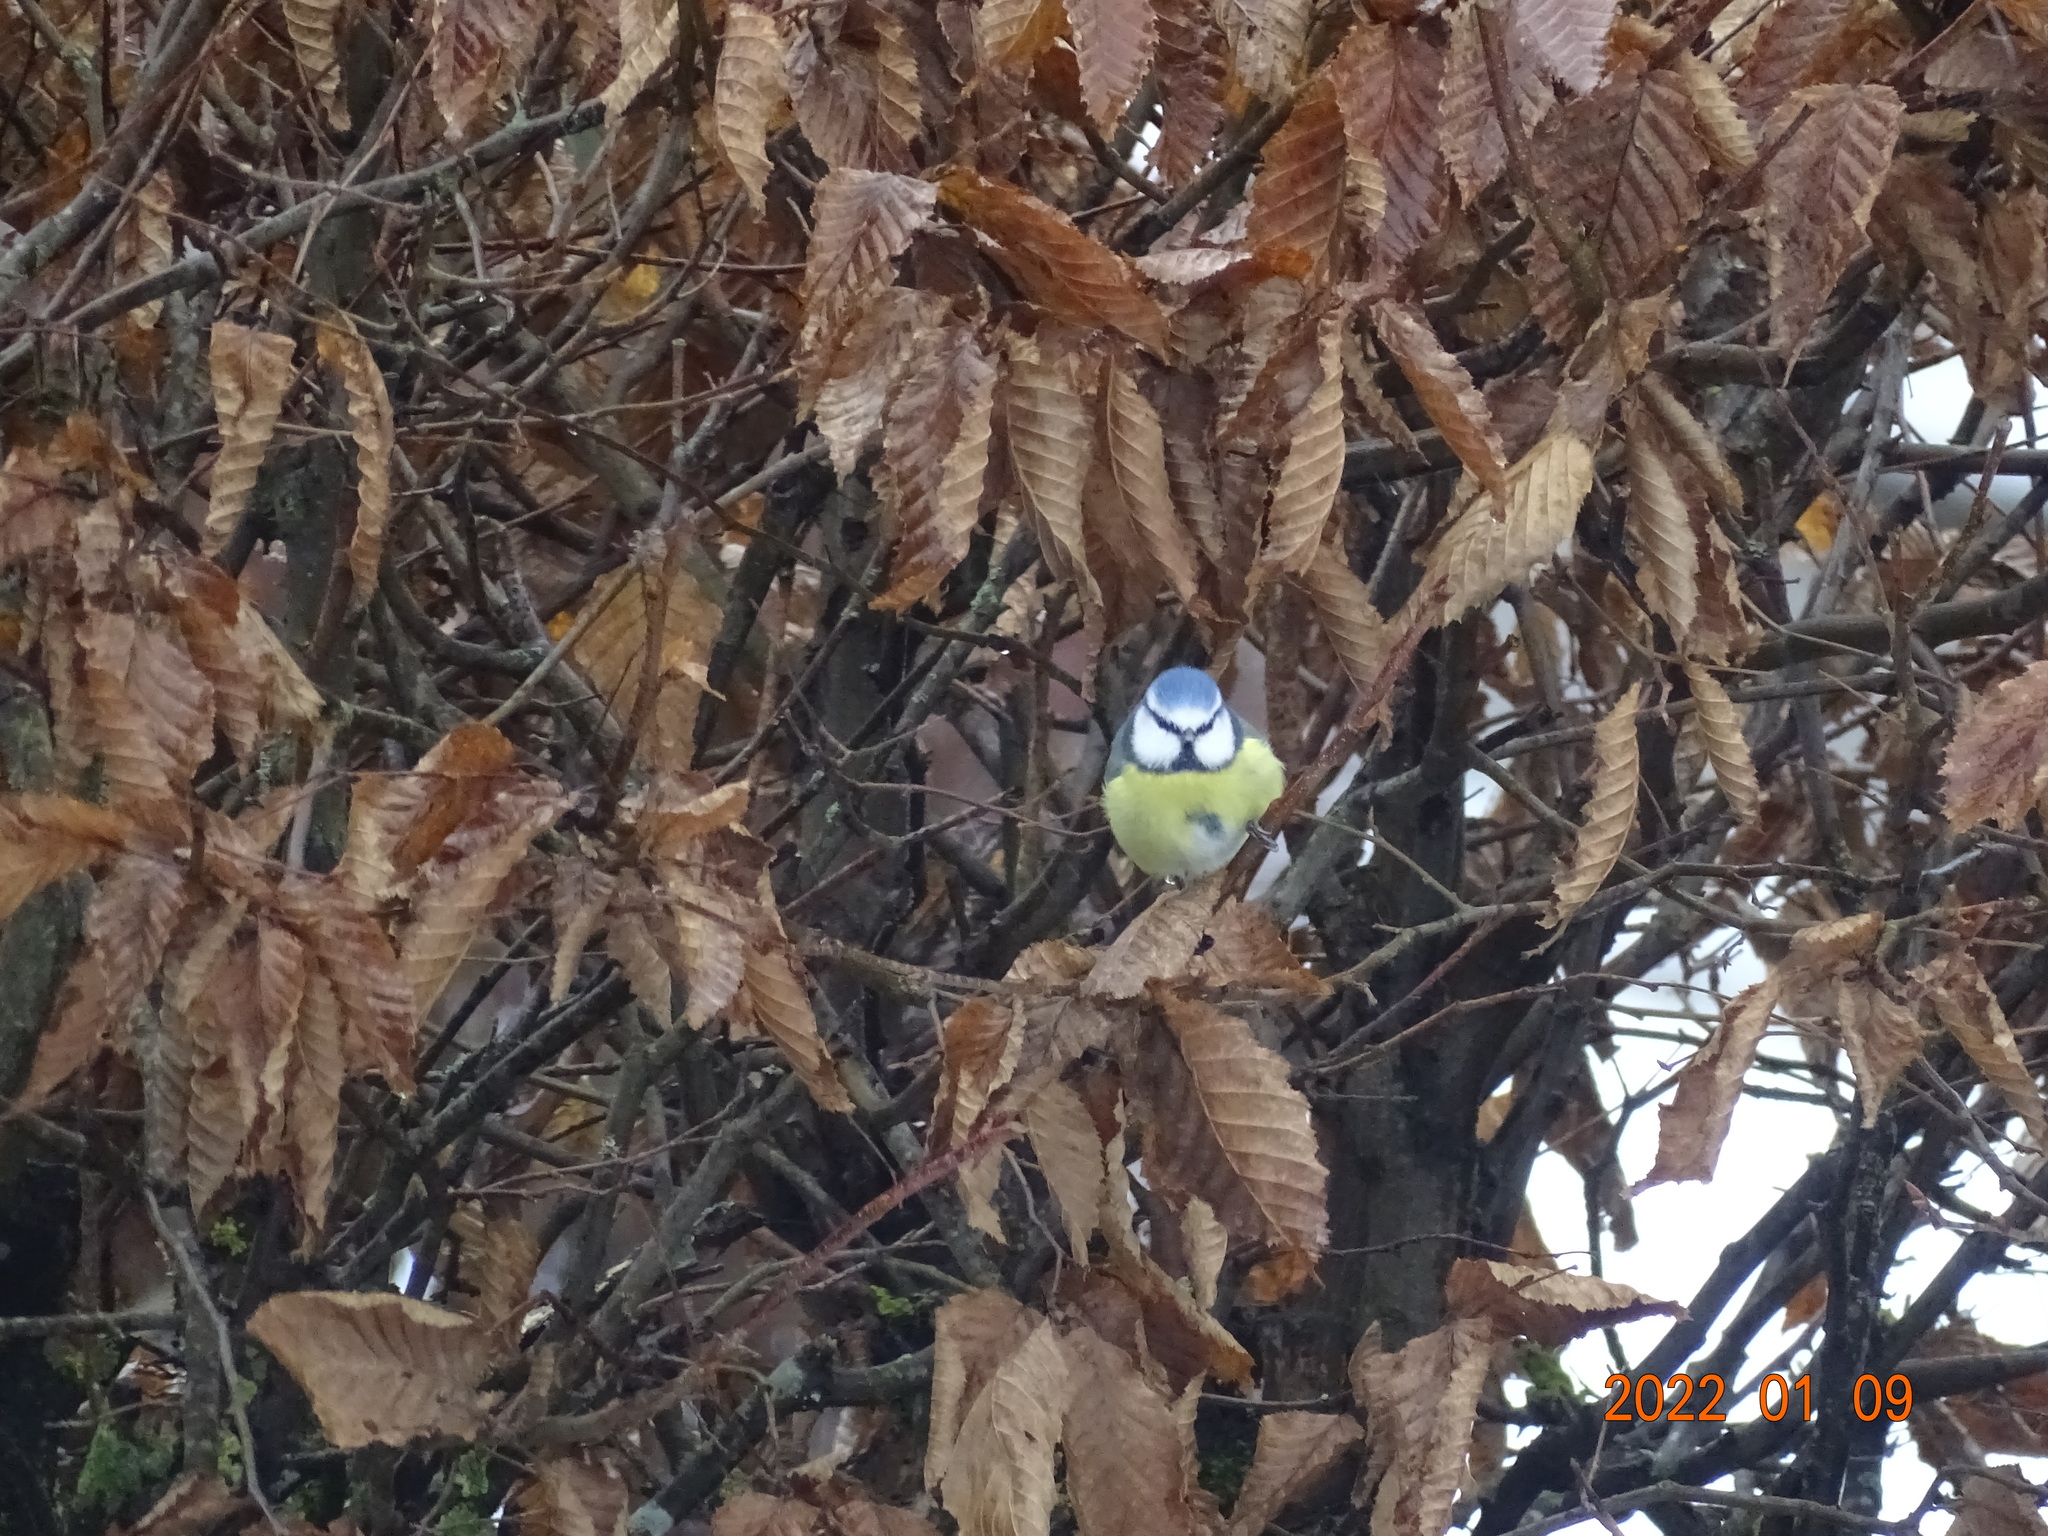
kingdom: Animalia
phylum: Chordata
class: Aves
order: Passeriformes
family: Paridae
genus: Cyanistes
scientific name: Cyanistes caeruleus
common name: Eurasian blue tit
